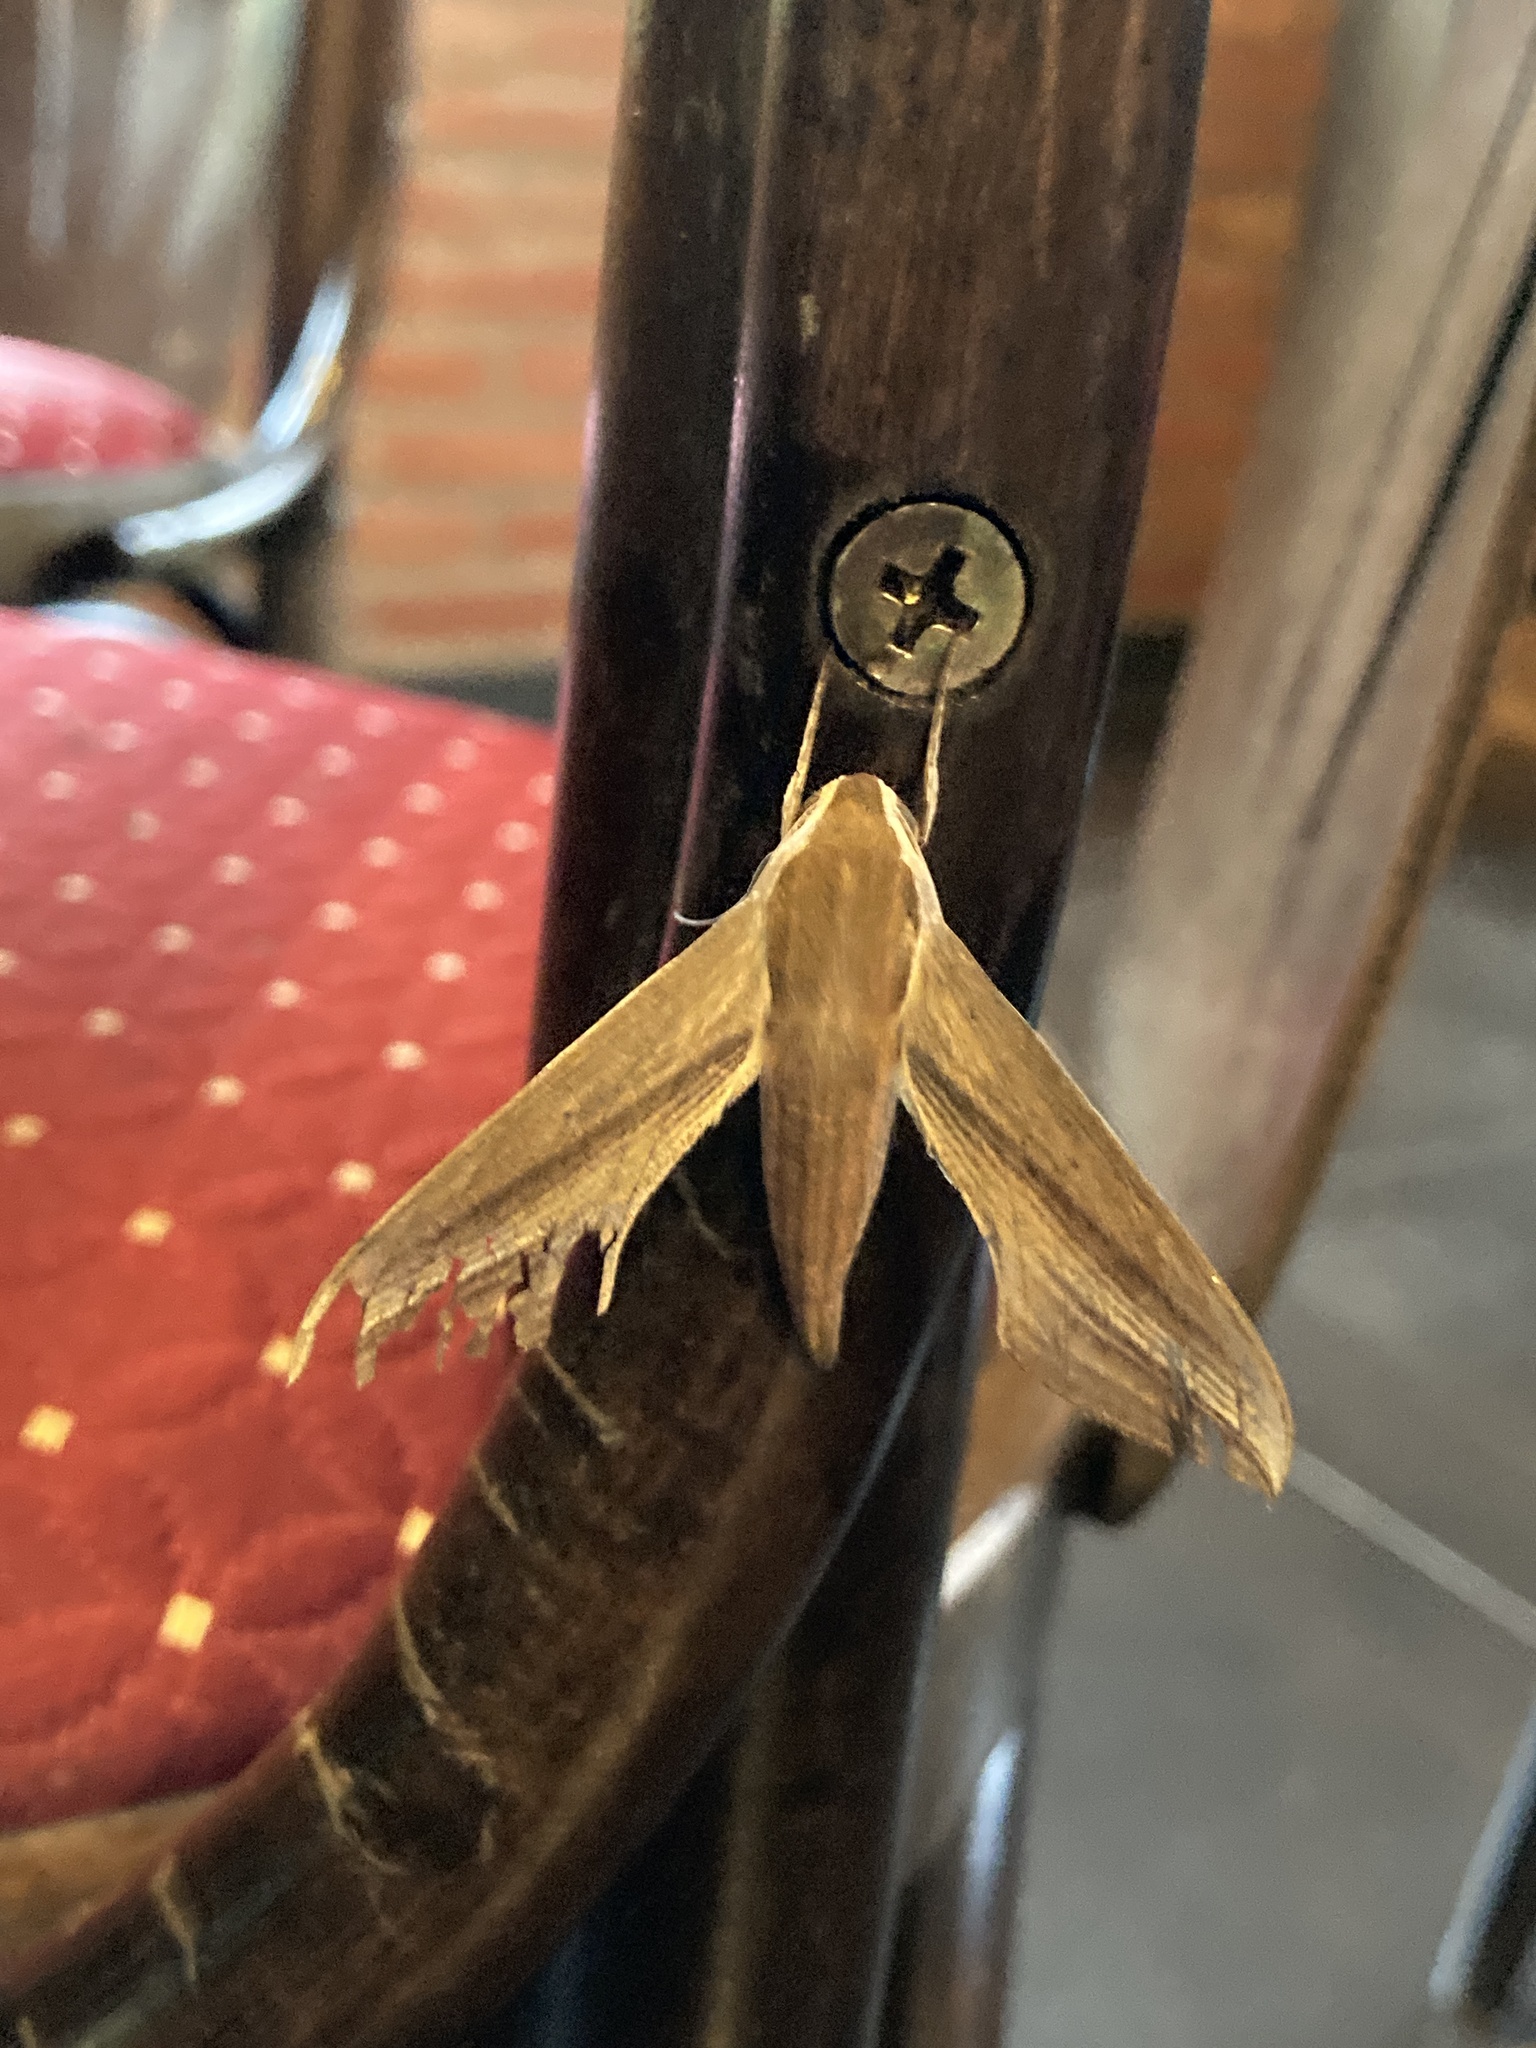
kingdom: Animalia
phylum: Arthropoda
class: Insecta
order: Lepidoptera
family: Sphingidae
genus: Xylophanes
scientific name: Xylophanes tersa
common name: Tersa sphinx
